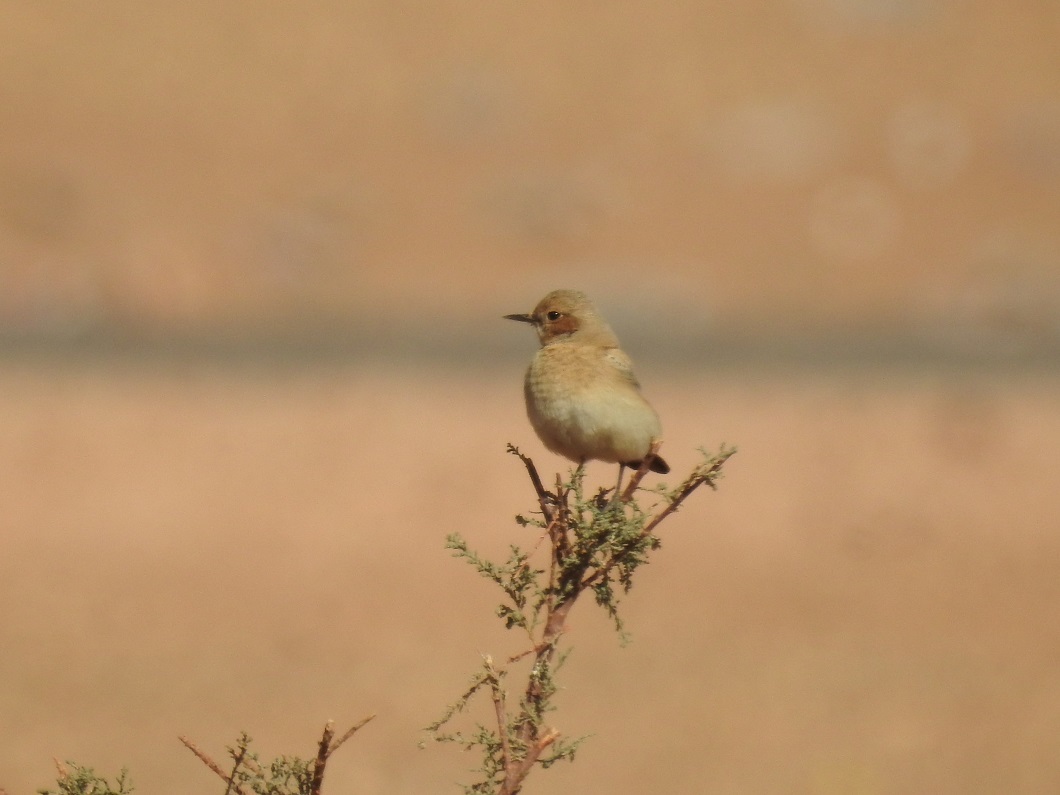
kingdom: Animalia
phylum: Chordata
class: Aves
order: Passeriformes
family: Muscicapidae
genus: Oenanthe
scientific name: Oenanthe moesta
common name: Red-rumped wheatear
